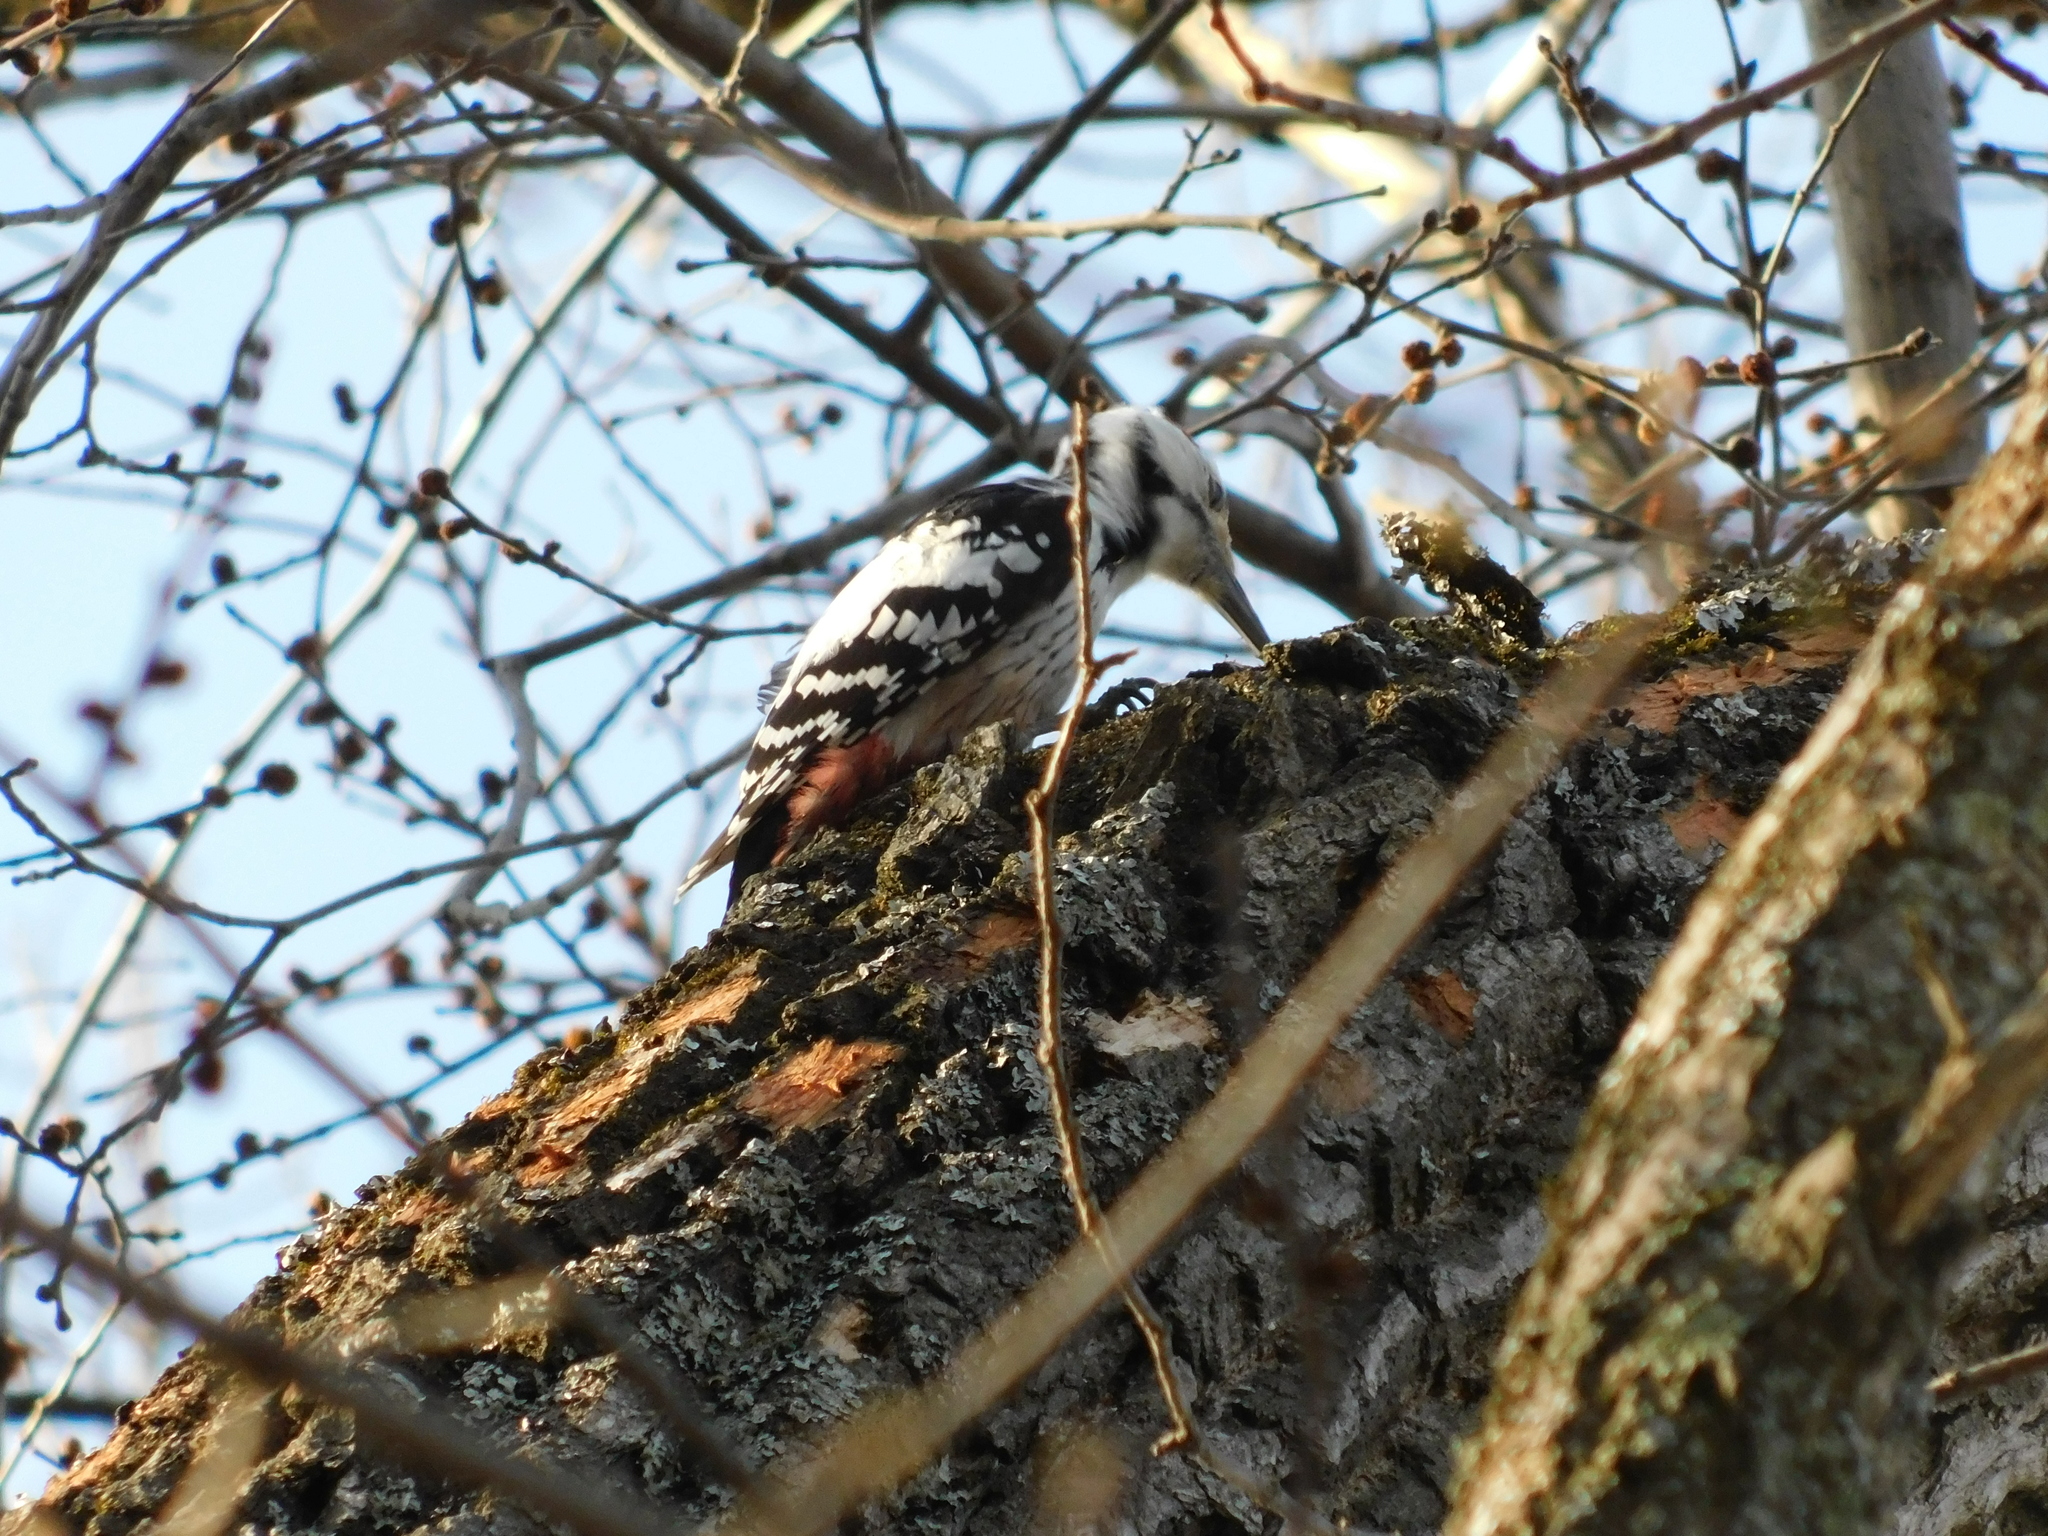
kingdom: Animalia
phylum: Chordata
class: Aves
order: Piciformes
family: Picidae
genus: Dendrocopos
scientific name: Dendrocopos leucotos
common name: White-backed woodpecker
